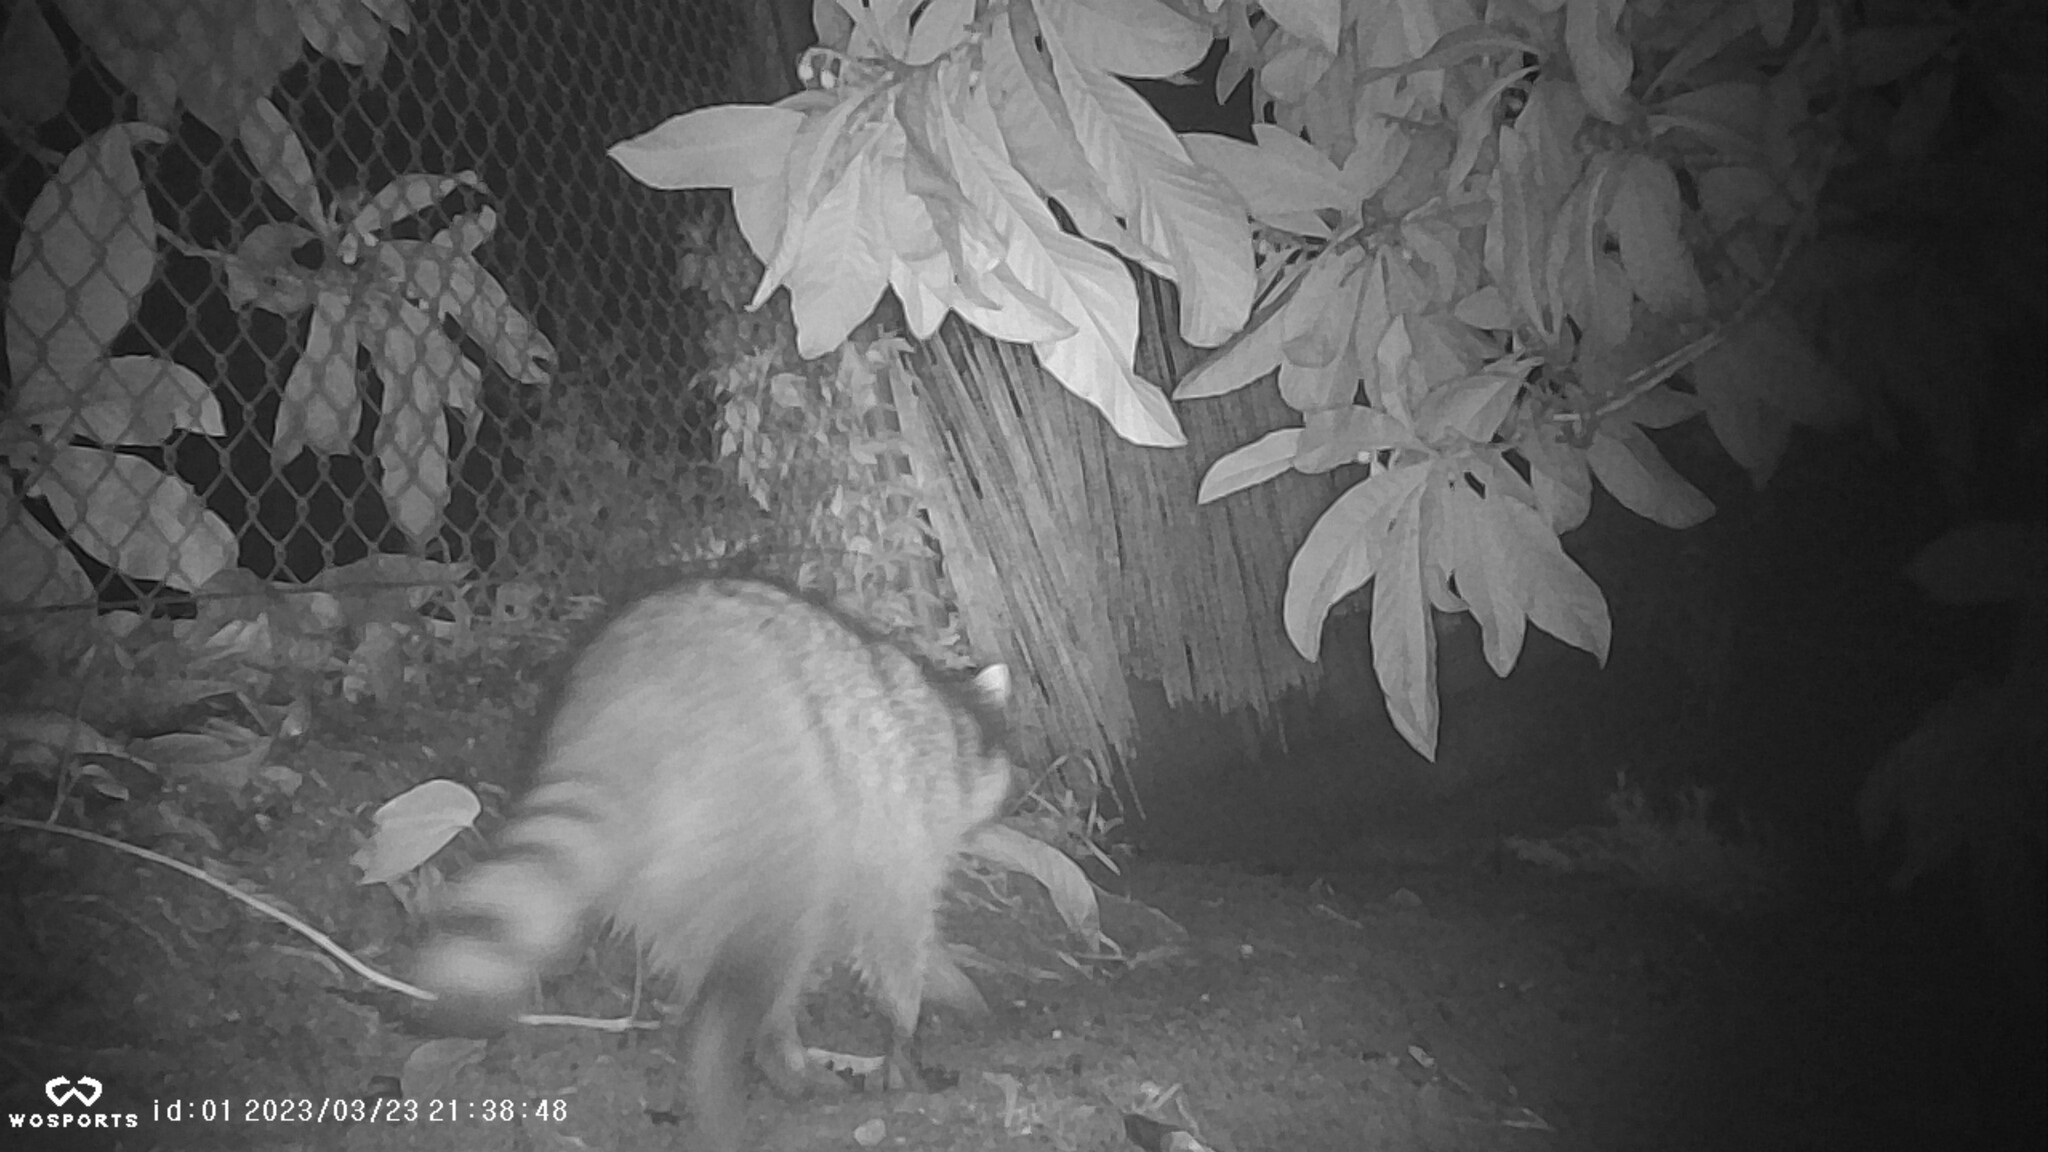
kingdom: Animalia
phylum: Chordata
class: Mammalia
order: Carnivora
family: Procyonidae
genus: Procyon
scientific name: Procyon lotor
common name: Raccoon
